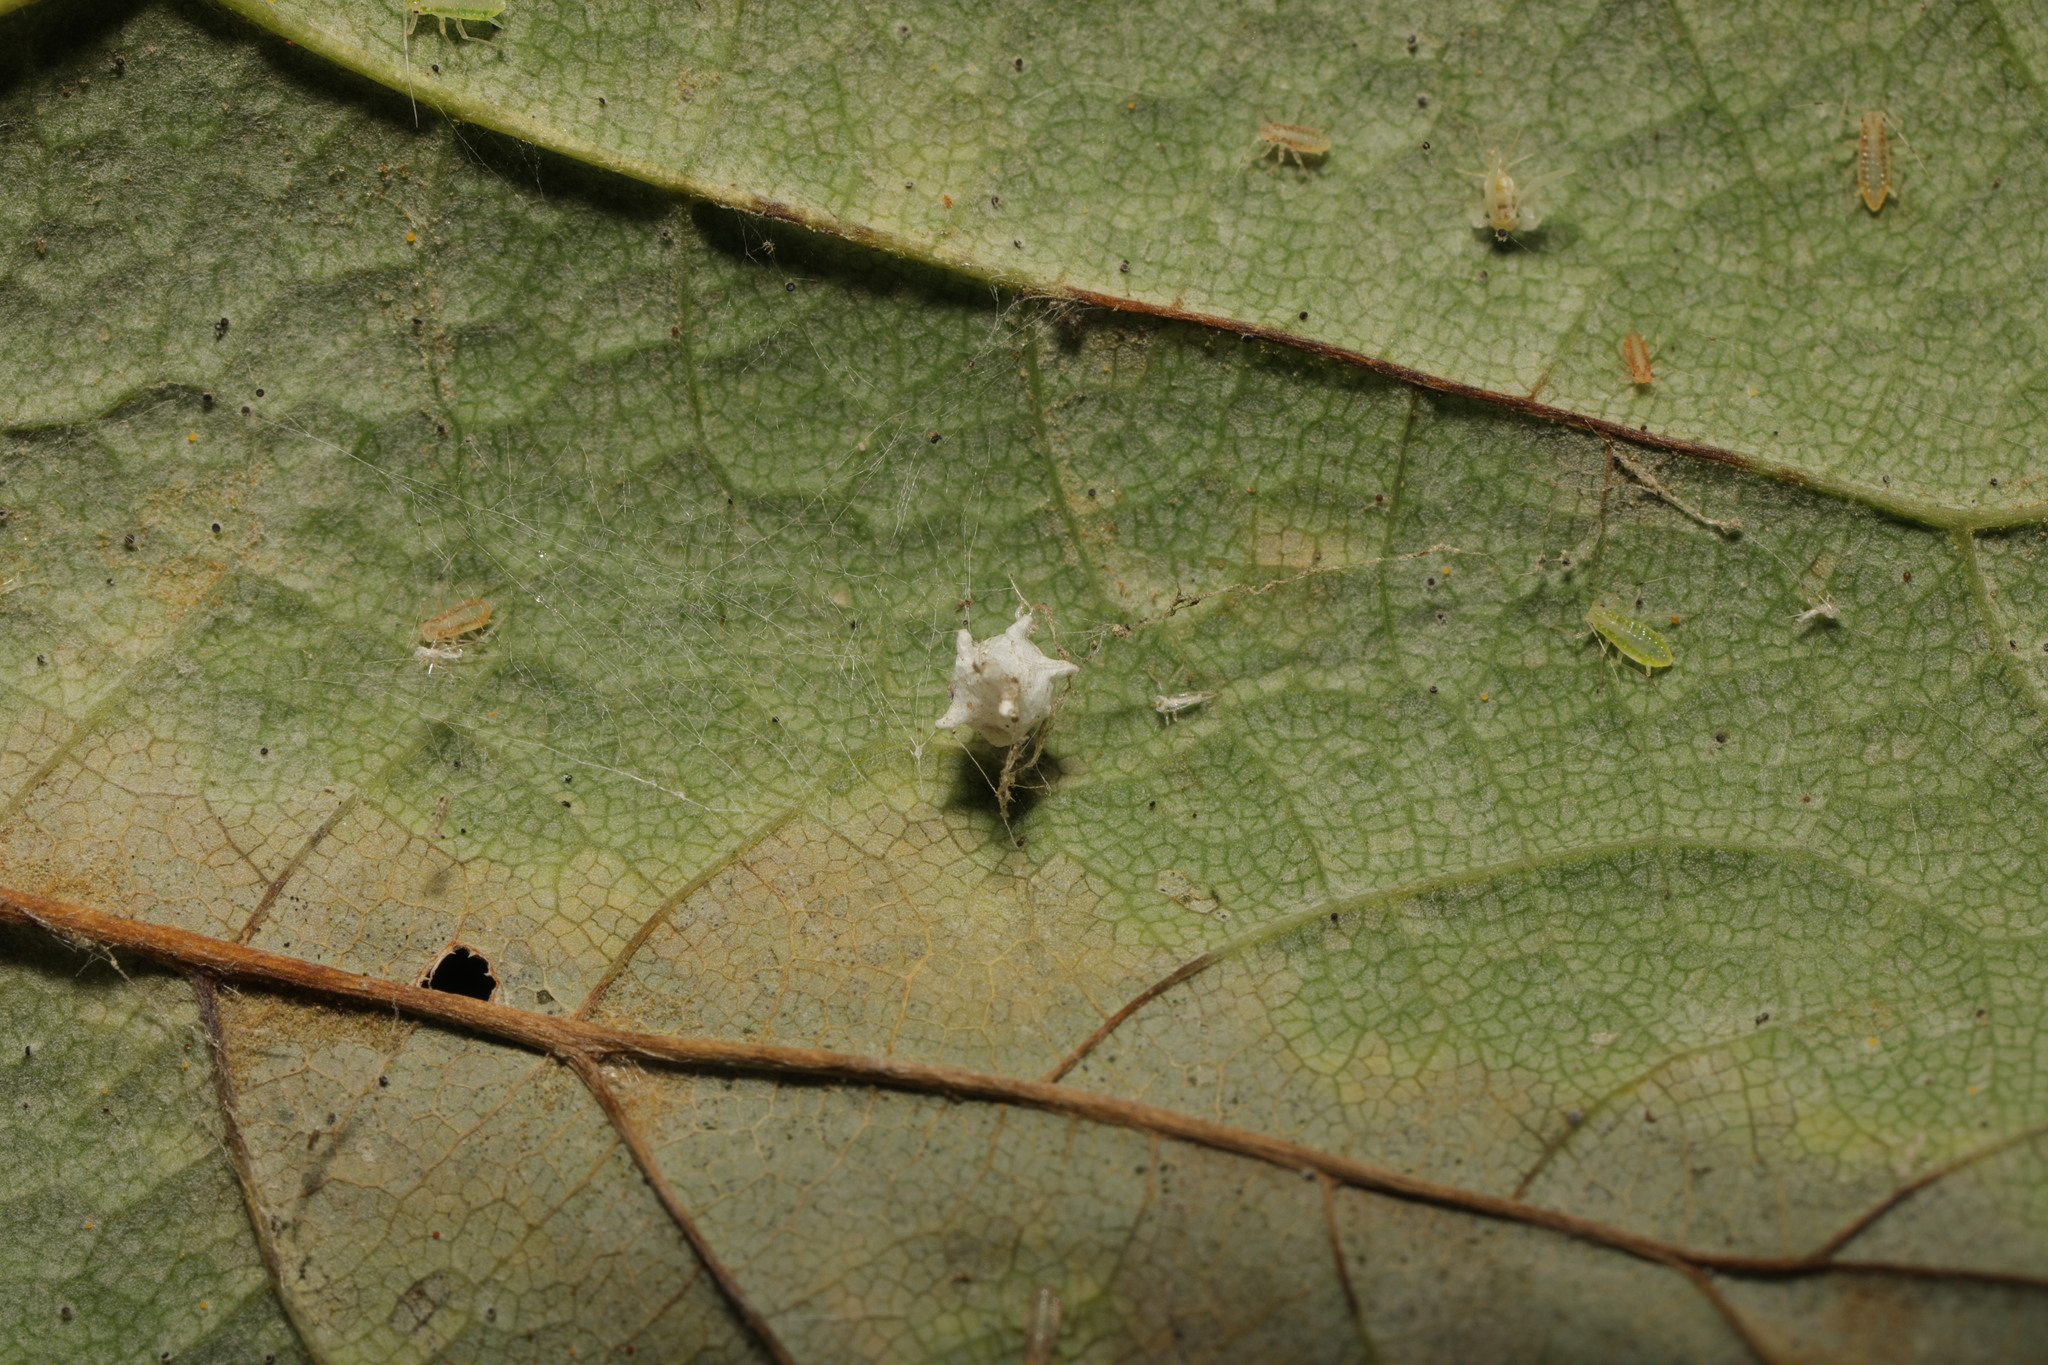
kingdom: Animalia
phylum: Arthropoda
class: Arachnida
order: Araneae
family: Theridiidae
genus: Paidiscura
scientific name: Paidiscura pallens
